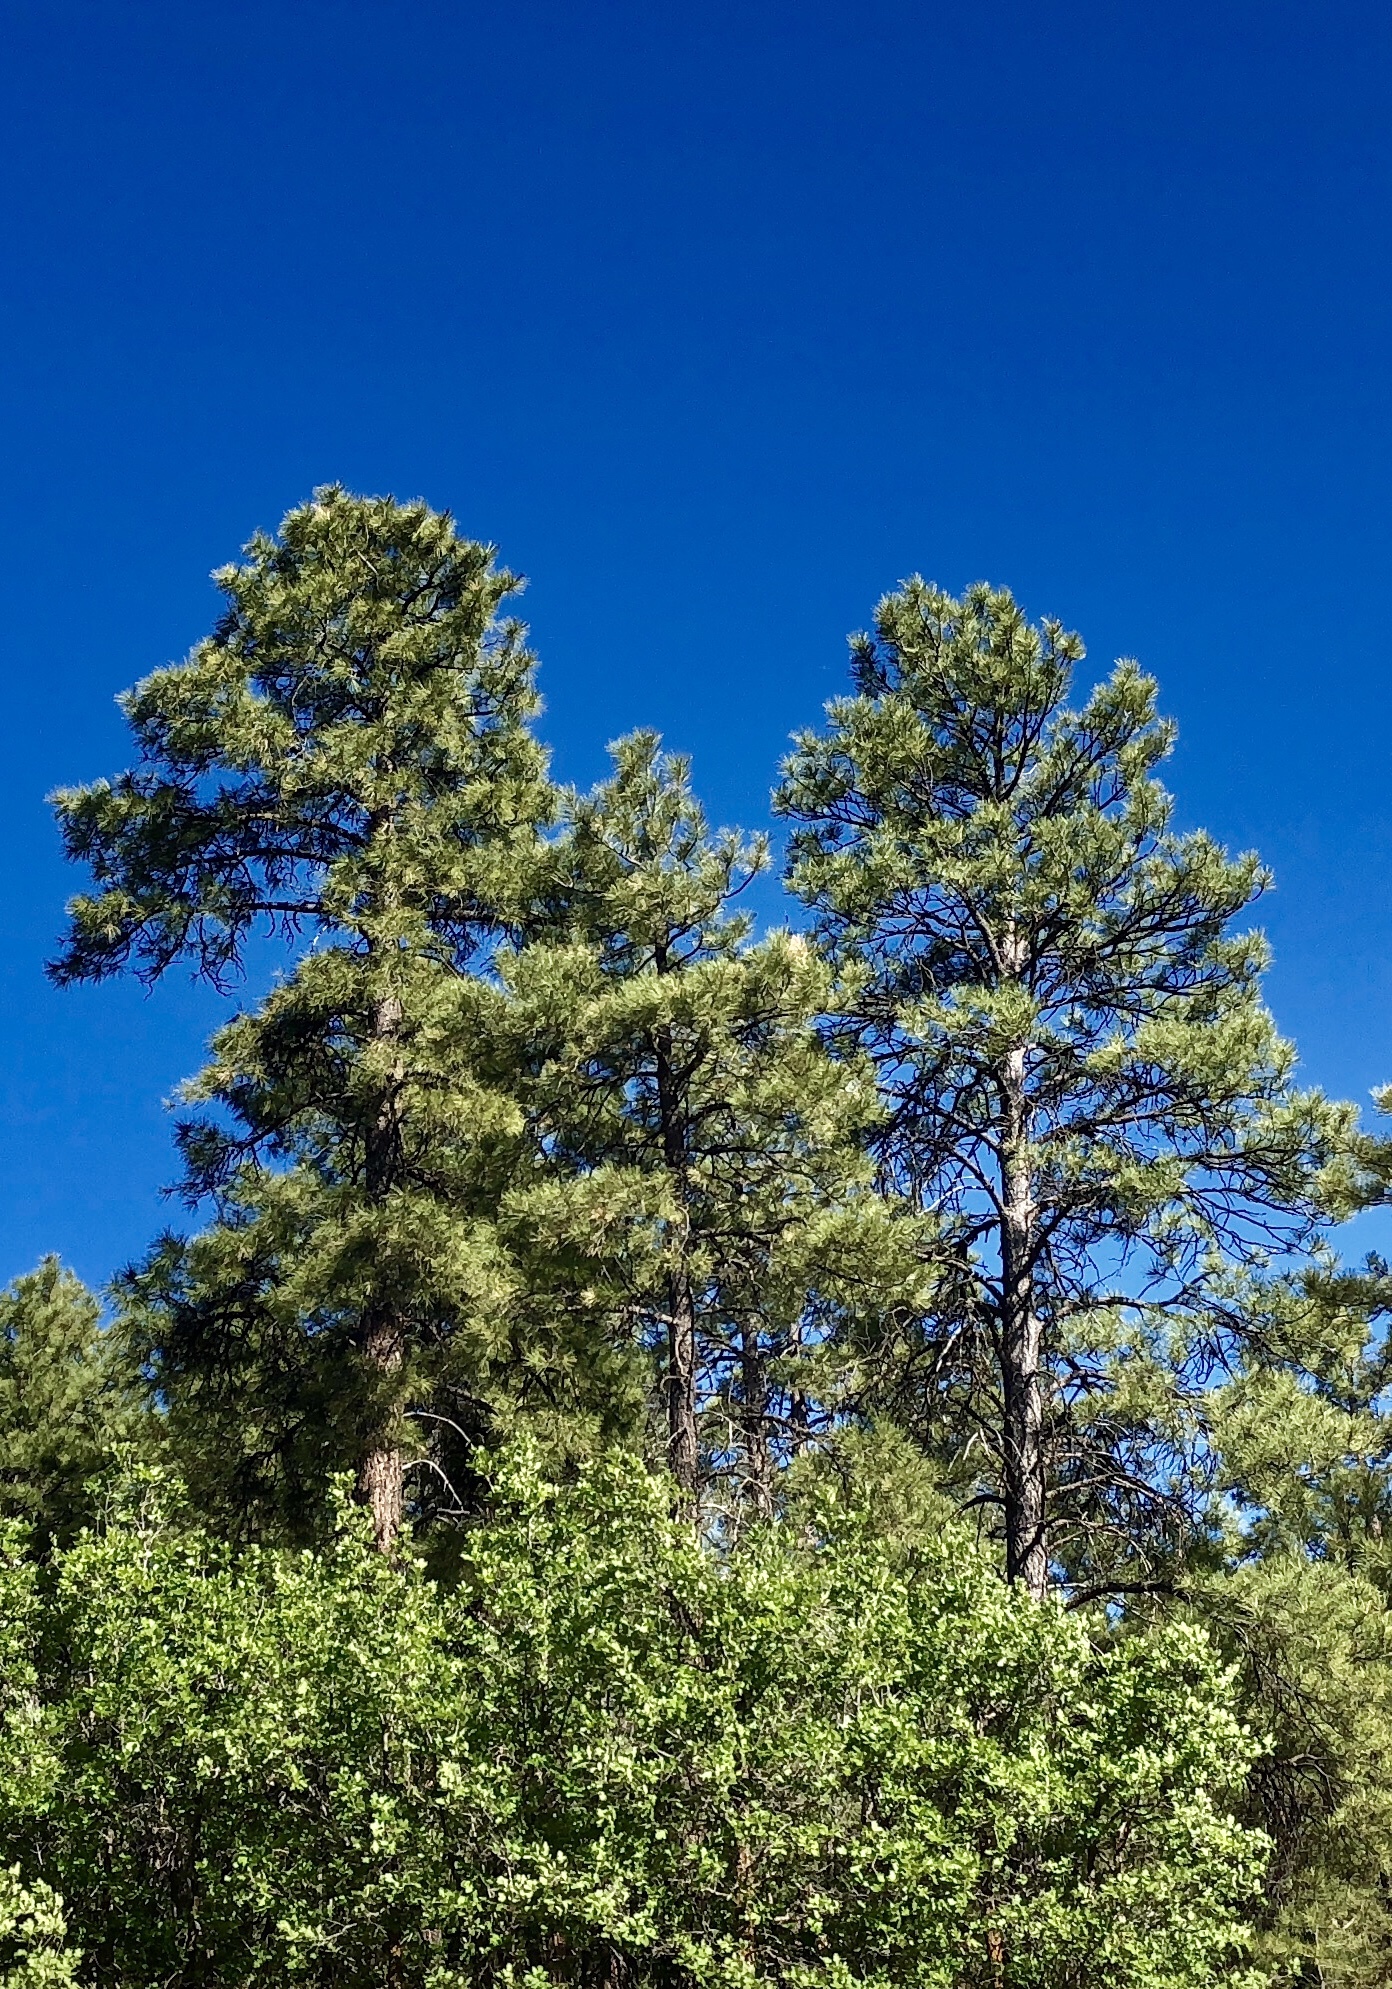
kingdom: Plantae
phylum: Tracheophyta
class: Pinopsida
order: Pinales
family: Pinaceae
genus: Pinus
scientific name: Pinus ponderosa
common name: Western yellow-pine
